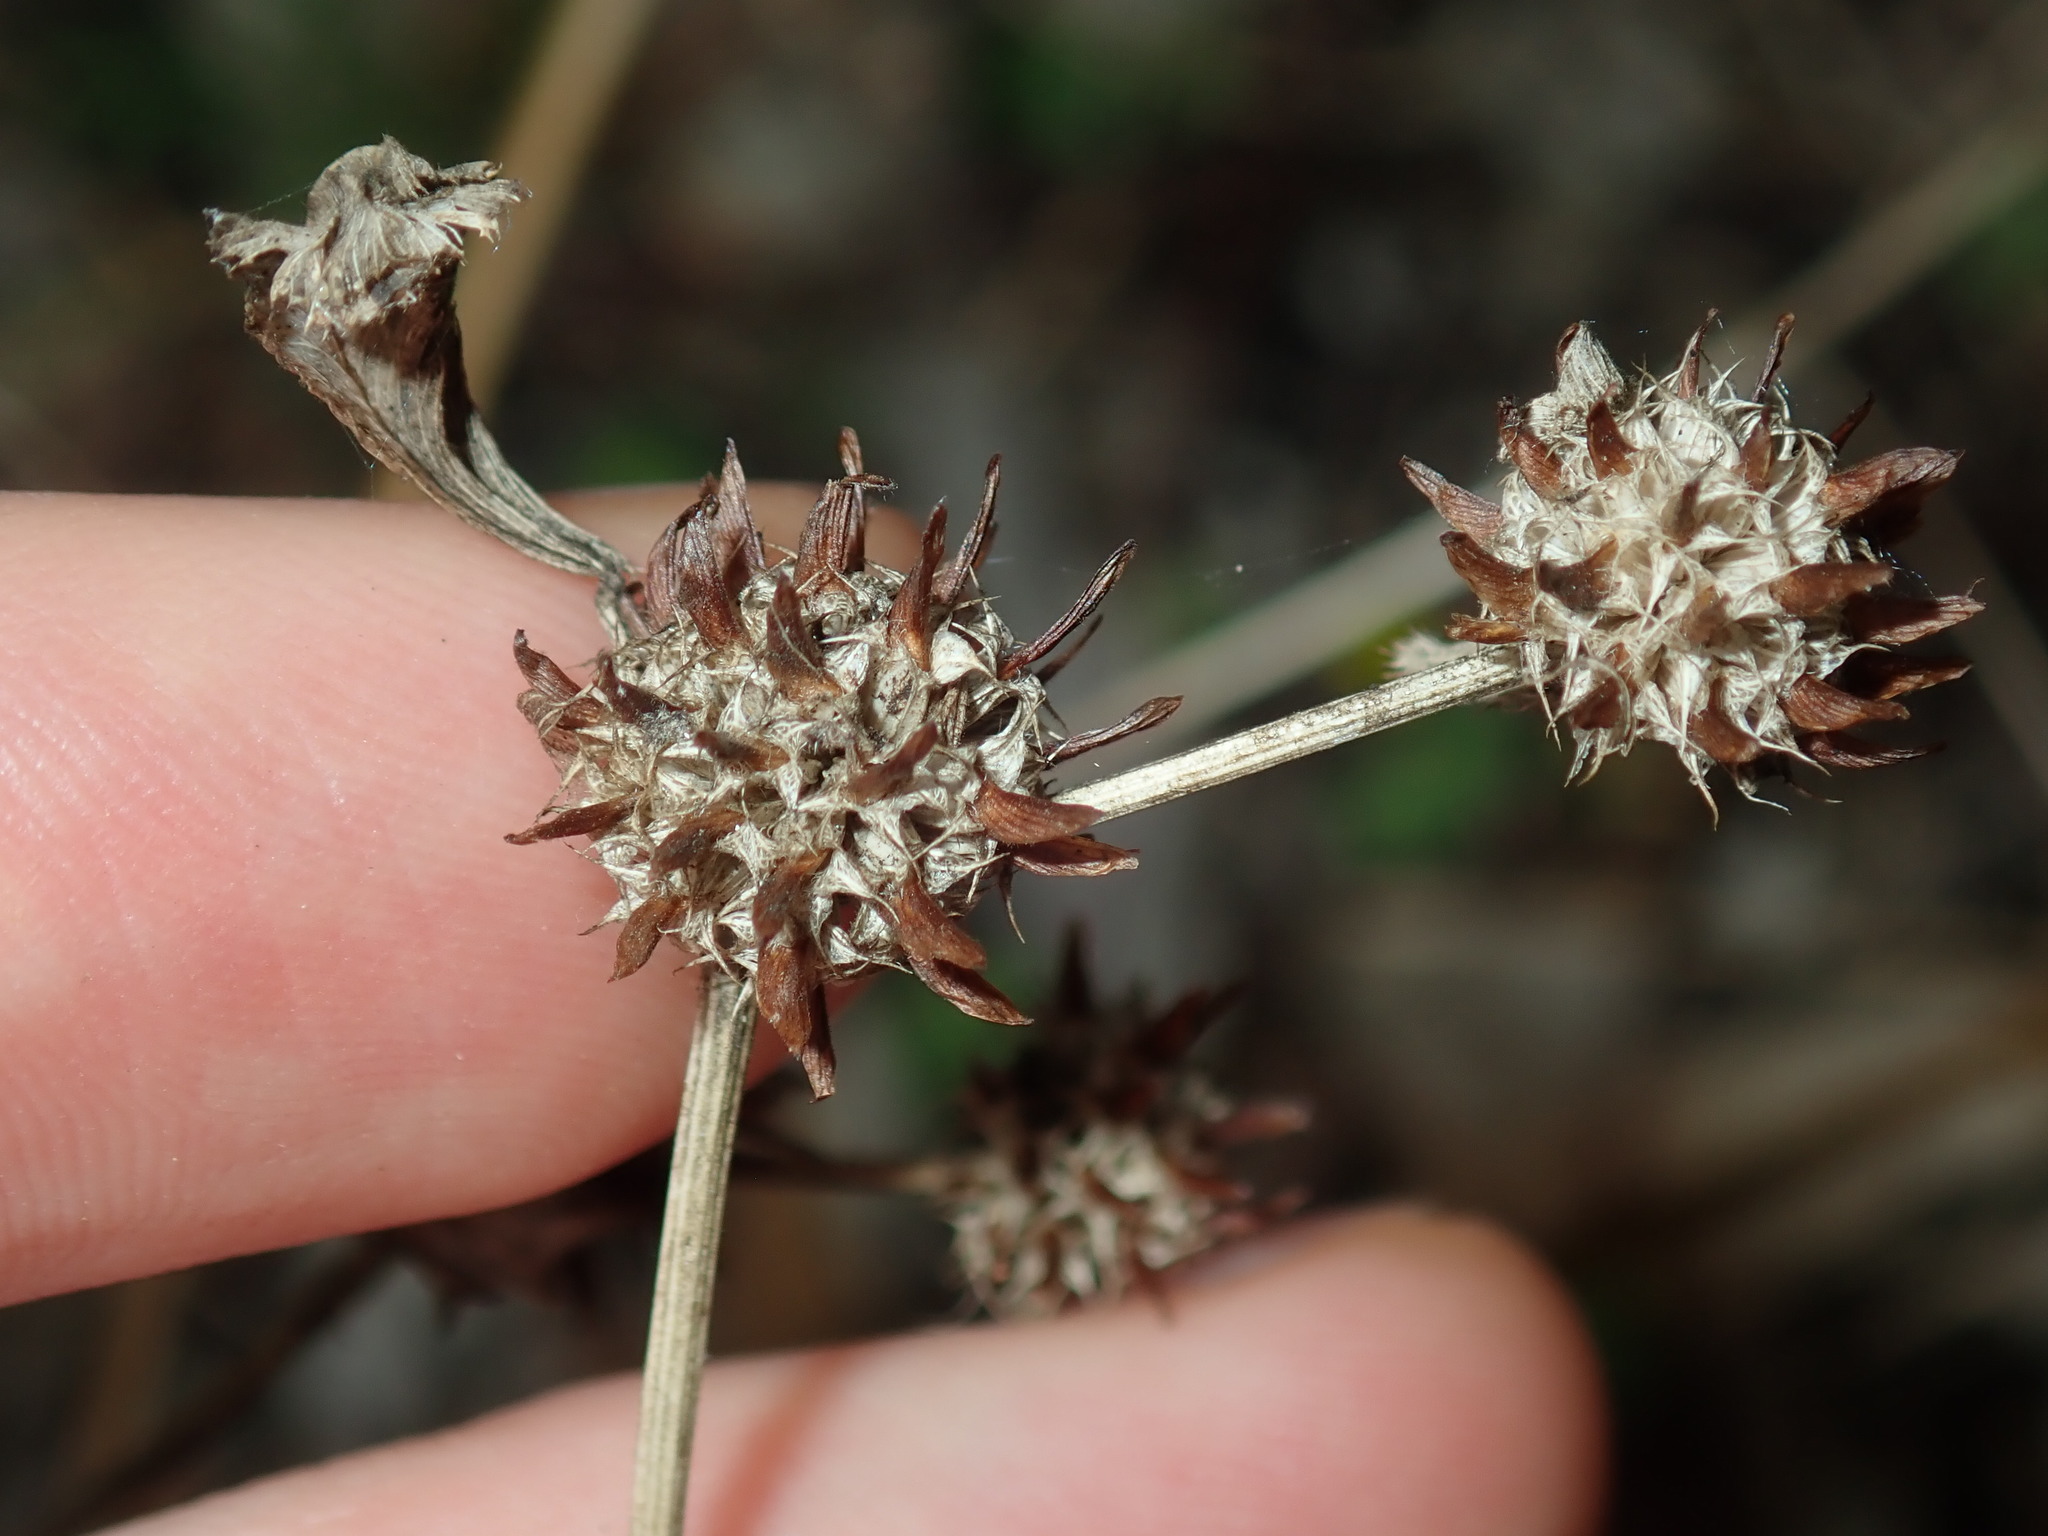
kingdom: Plantae
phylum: Tracheophyta
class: Magnoliopsida
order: Fabales
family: Fabaceae
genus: Trifolium
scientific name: Trifolium glomeratum
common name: Clustered clover
